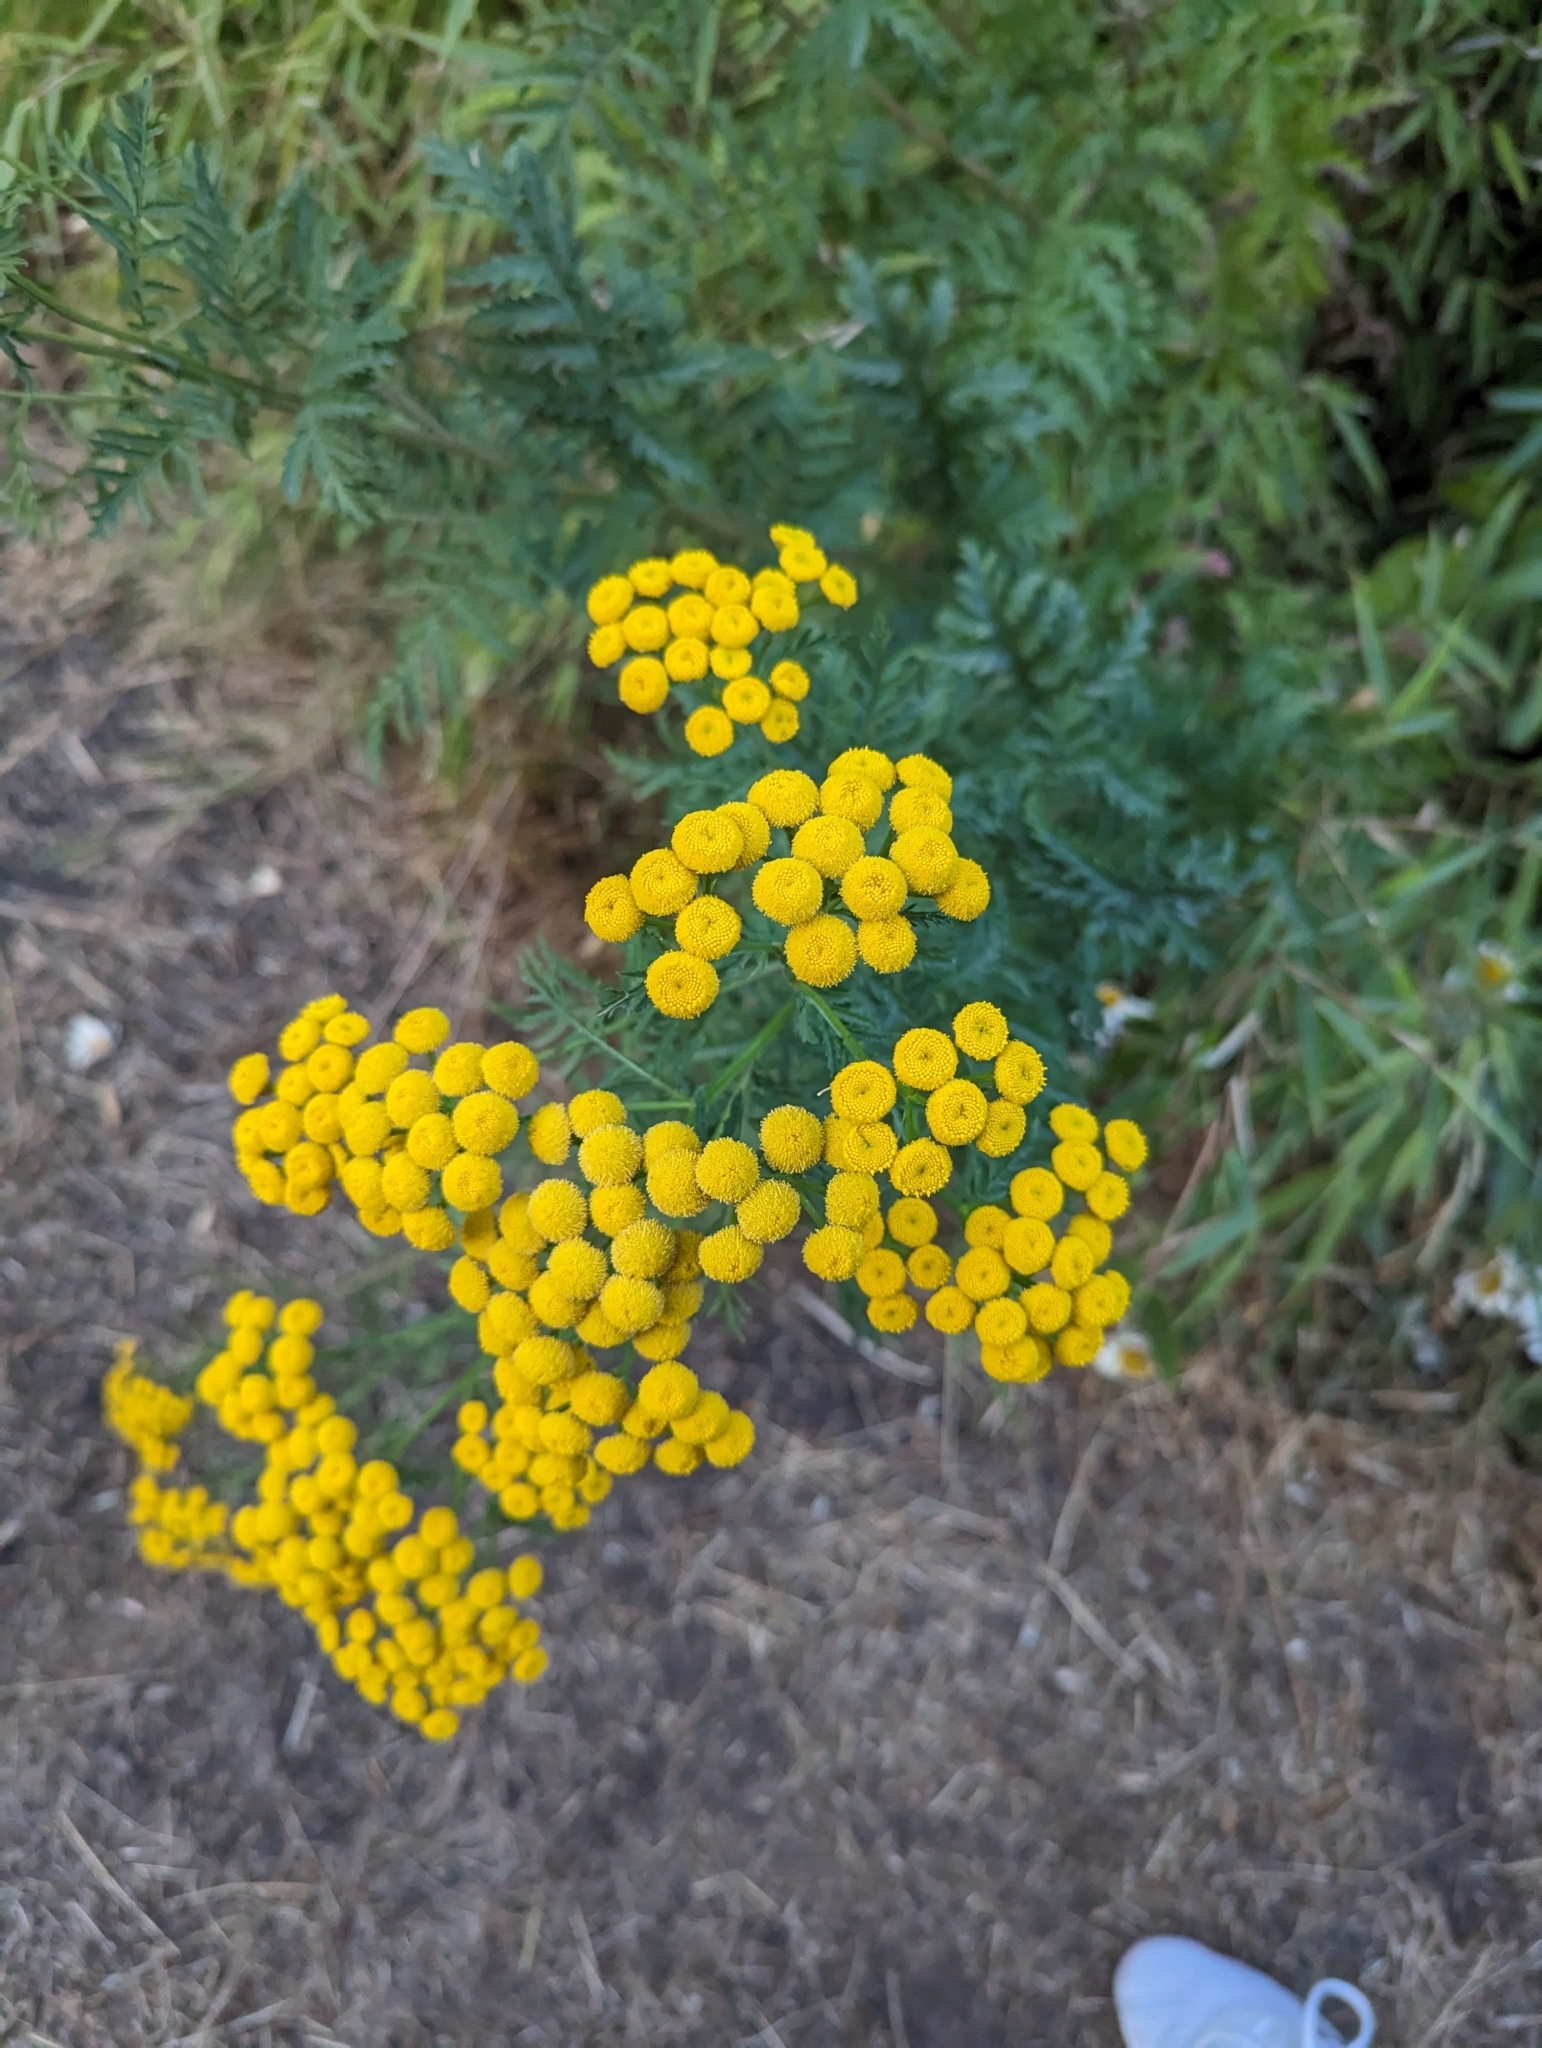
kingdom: Plantae
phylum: Tracheophyta
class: Magnoliopsida
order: Asterales
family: Asteraceae
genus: Tanacetum
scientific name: Tanacetum vulgare
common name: Common tansy
